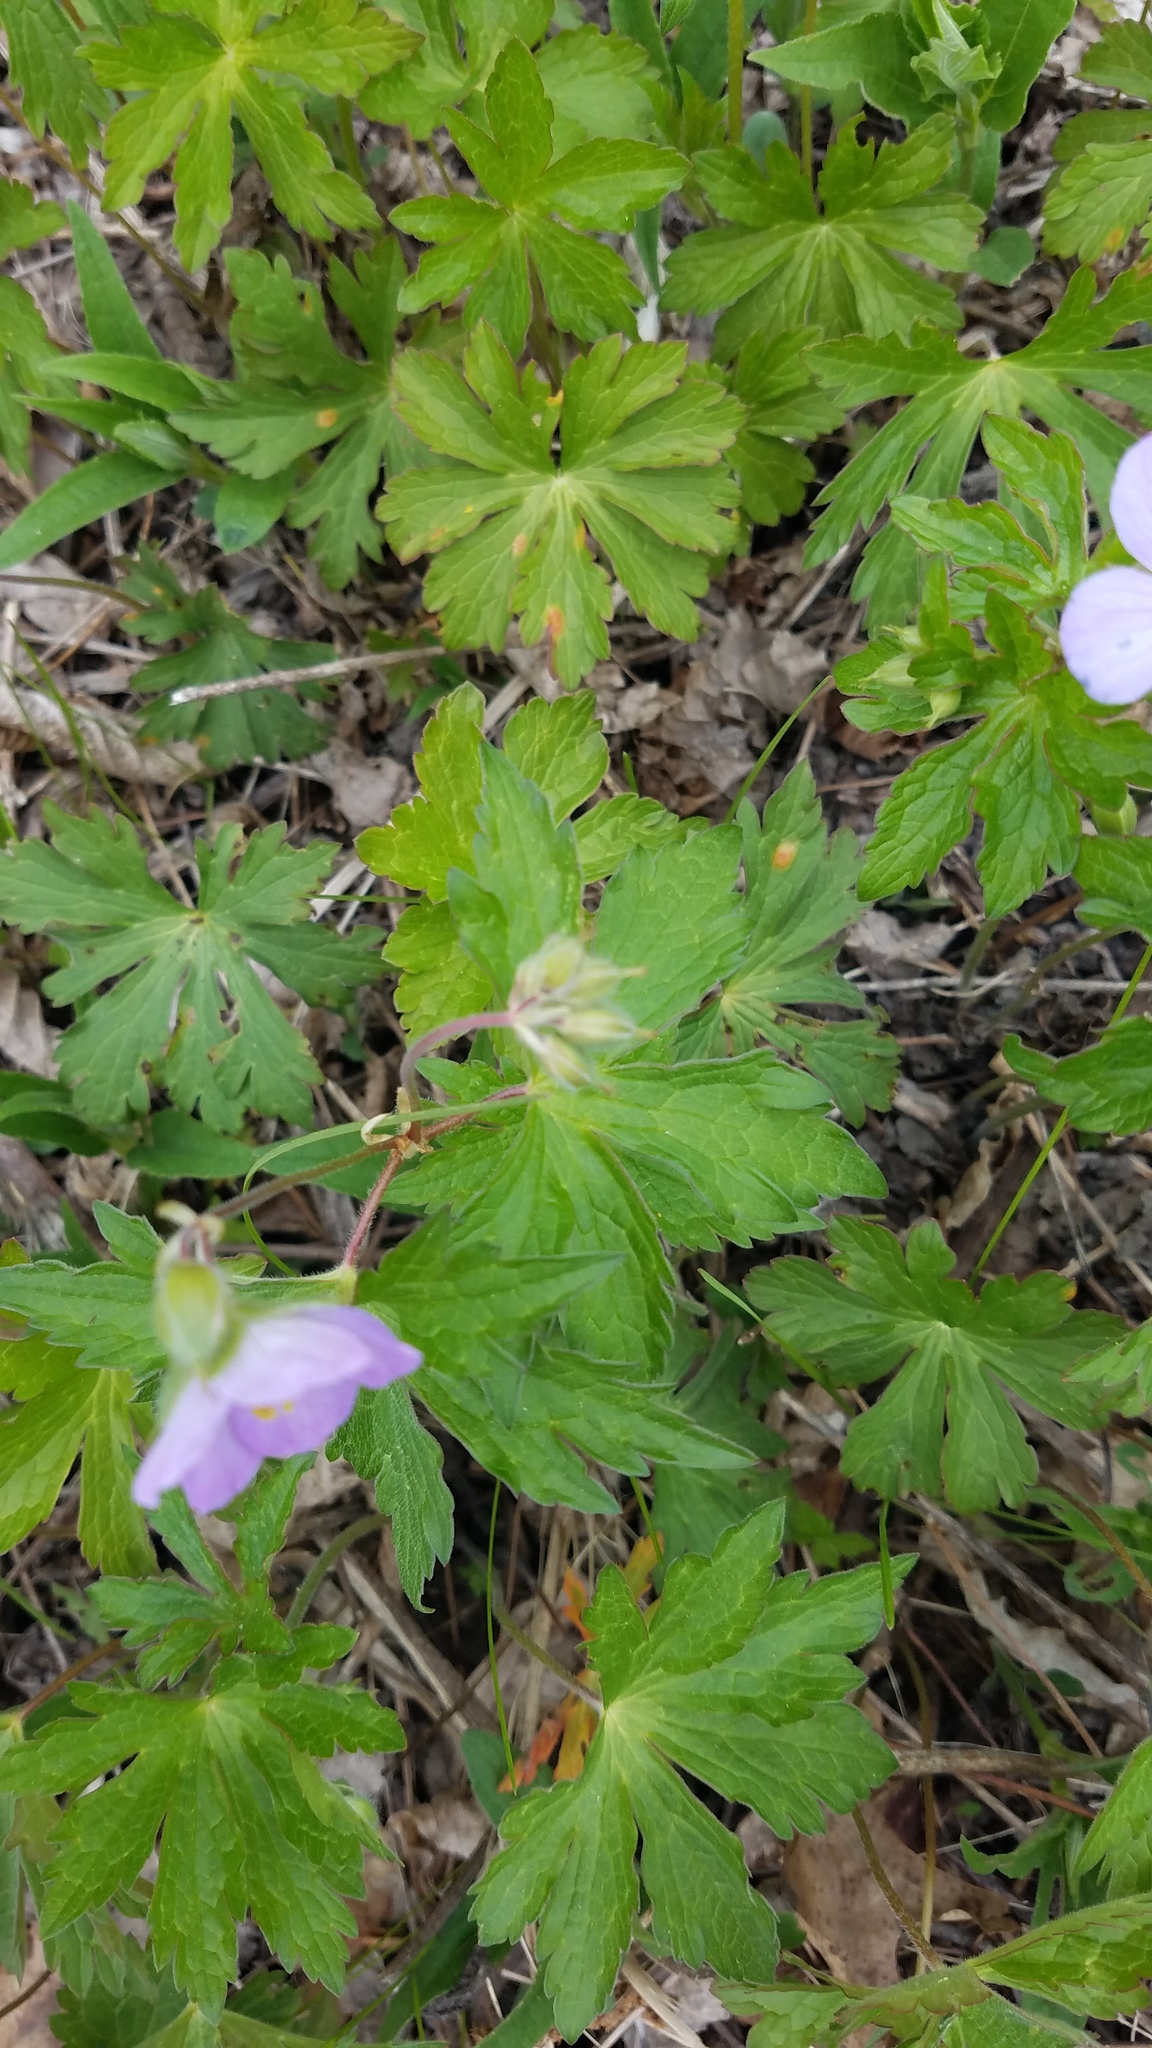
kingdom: Plantae
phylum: Tracheophyta
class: Magnoliopsida
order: Geraniales
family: Geraniaceae
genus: Geranium
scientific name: Geranium maculatum
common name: Spotted geranium
